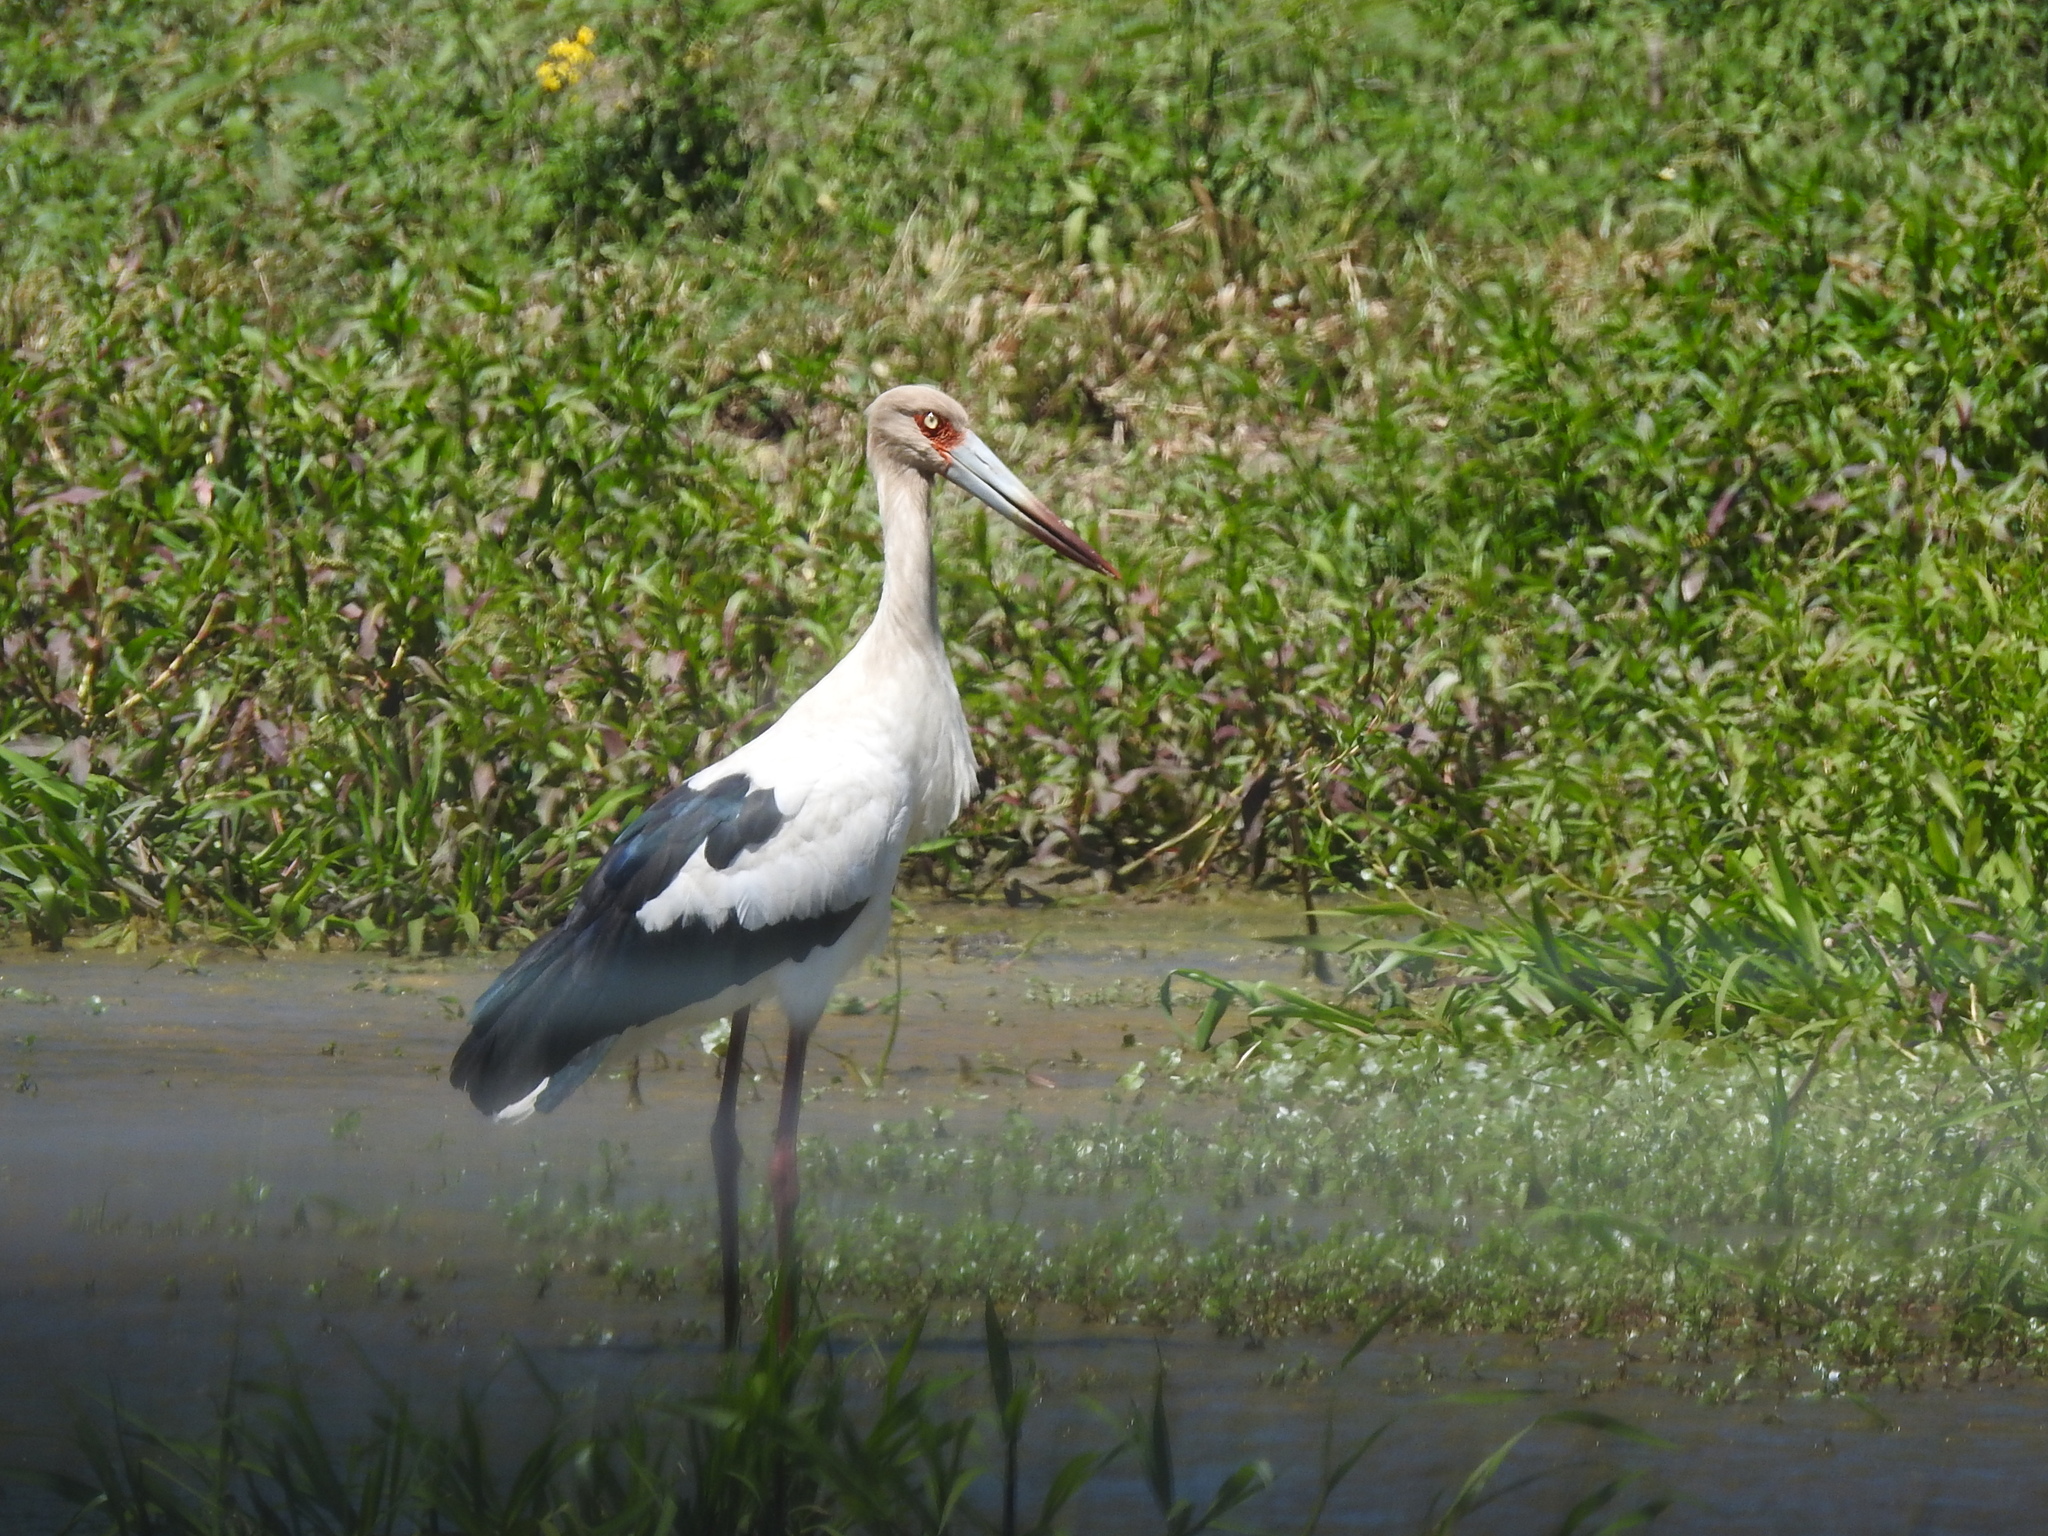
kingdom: Animalia
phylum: Chordata
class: Aves
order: Ciconiiformes
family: Ciconiidae
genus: Ciconia
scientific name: Ciconia maguari
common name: Maguari stork
